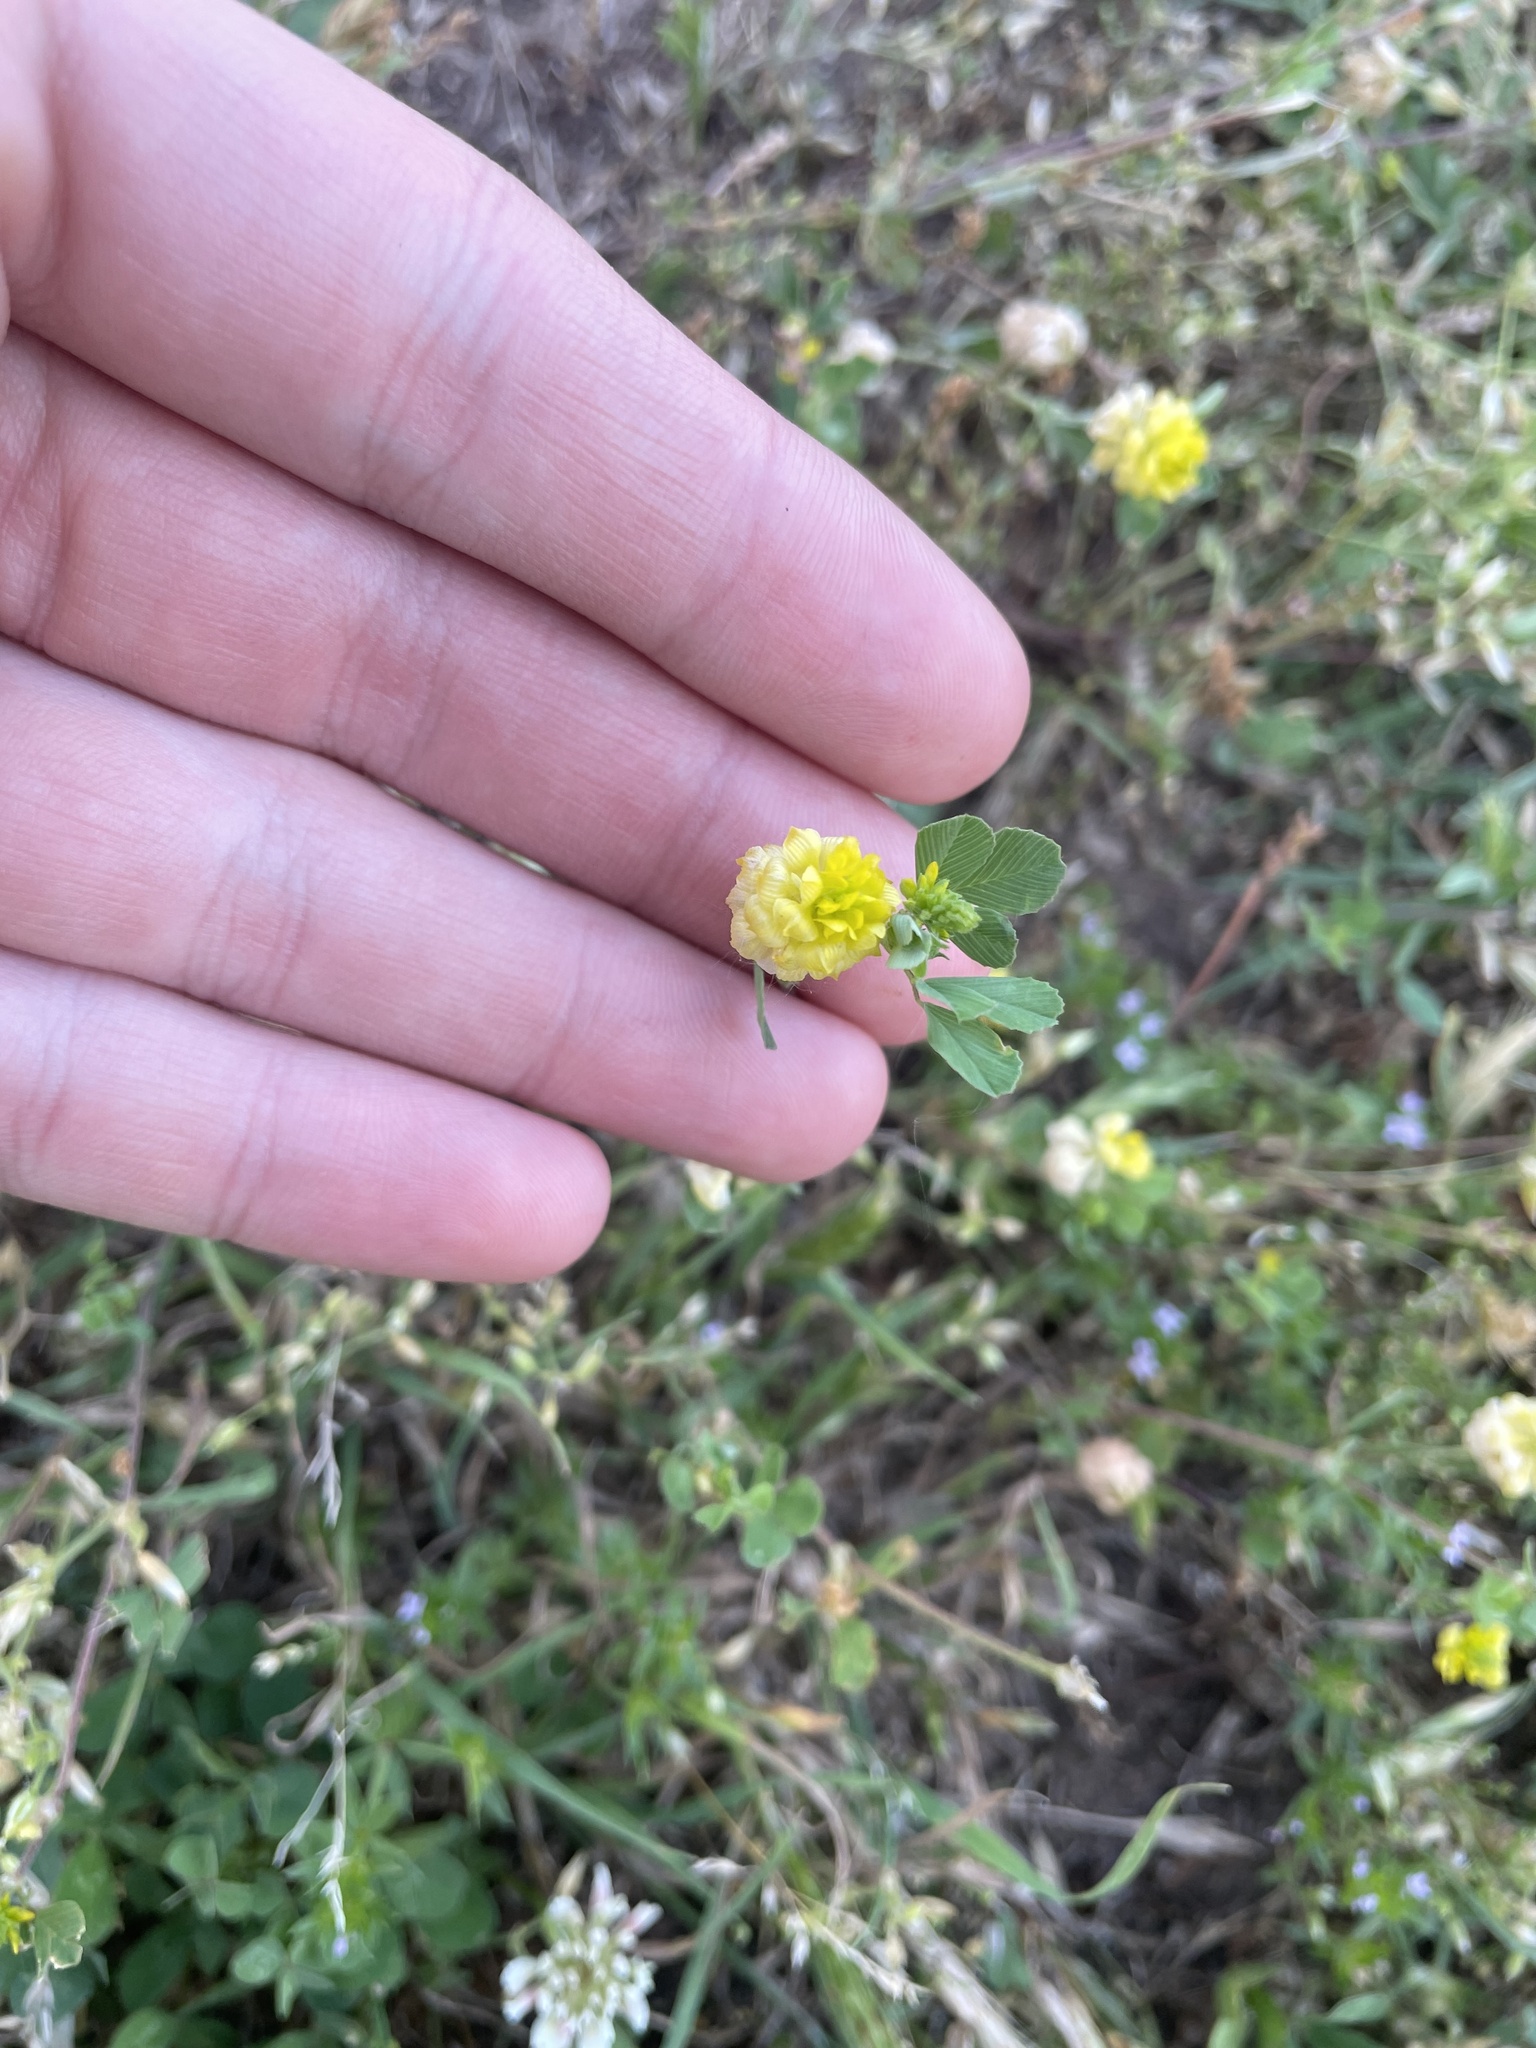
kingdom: Plantae
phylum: Tracheophyta
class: Magnoliopsida
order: Fabales
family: Fabaceae
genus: Trifolium
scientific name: Trifolium campestre
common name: Field clover
